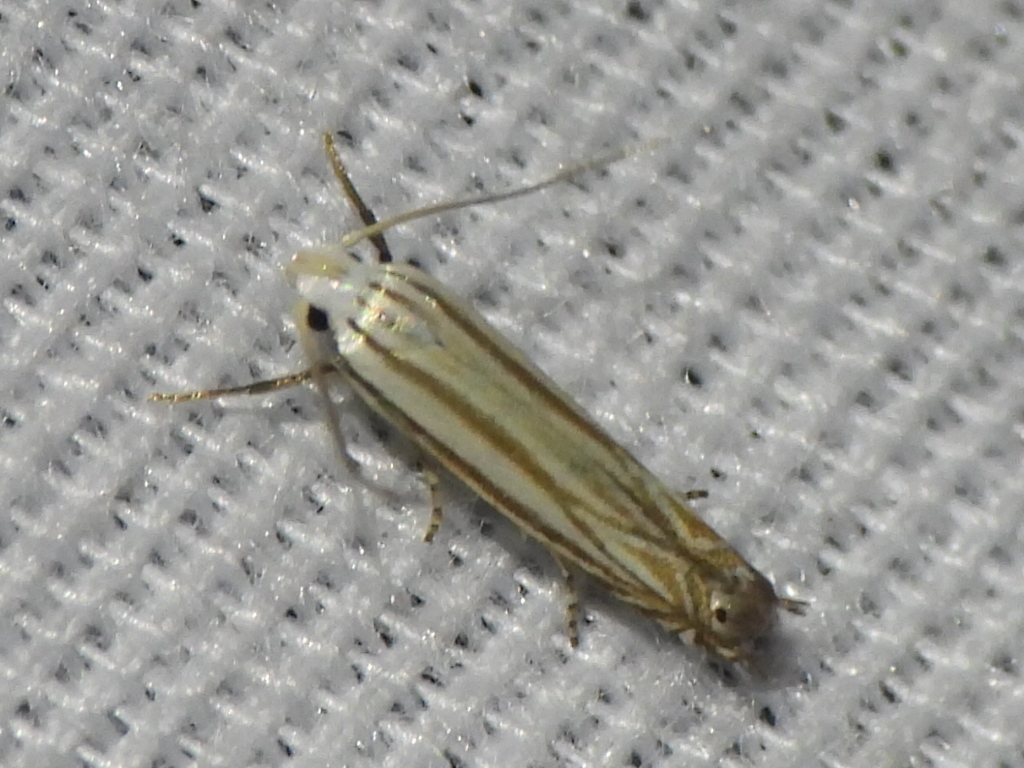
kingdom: Animalia
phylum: Arthropoda
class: Insecta
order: Lepidoptera
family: Gelechiidae
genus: Polyhymno
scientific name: Polyhymno luteostrigella
